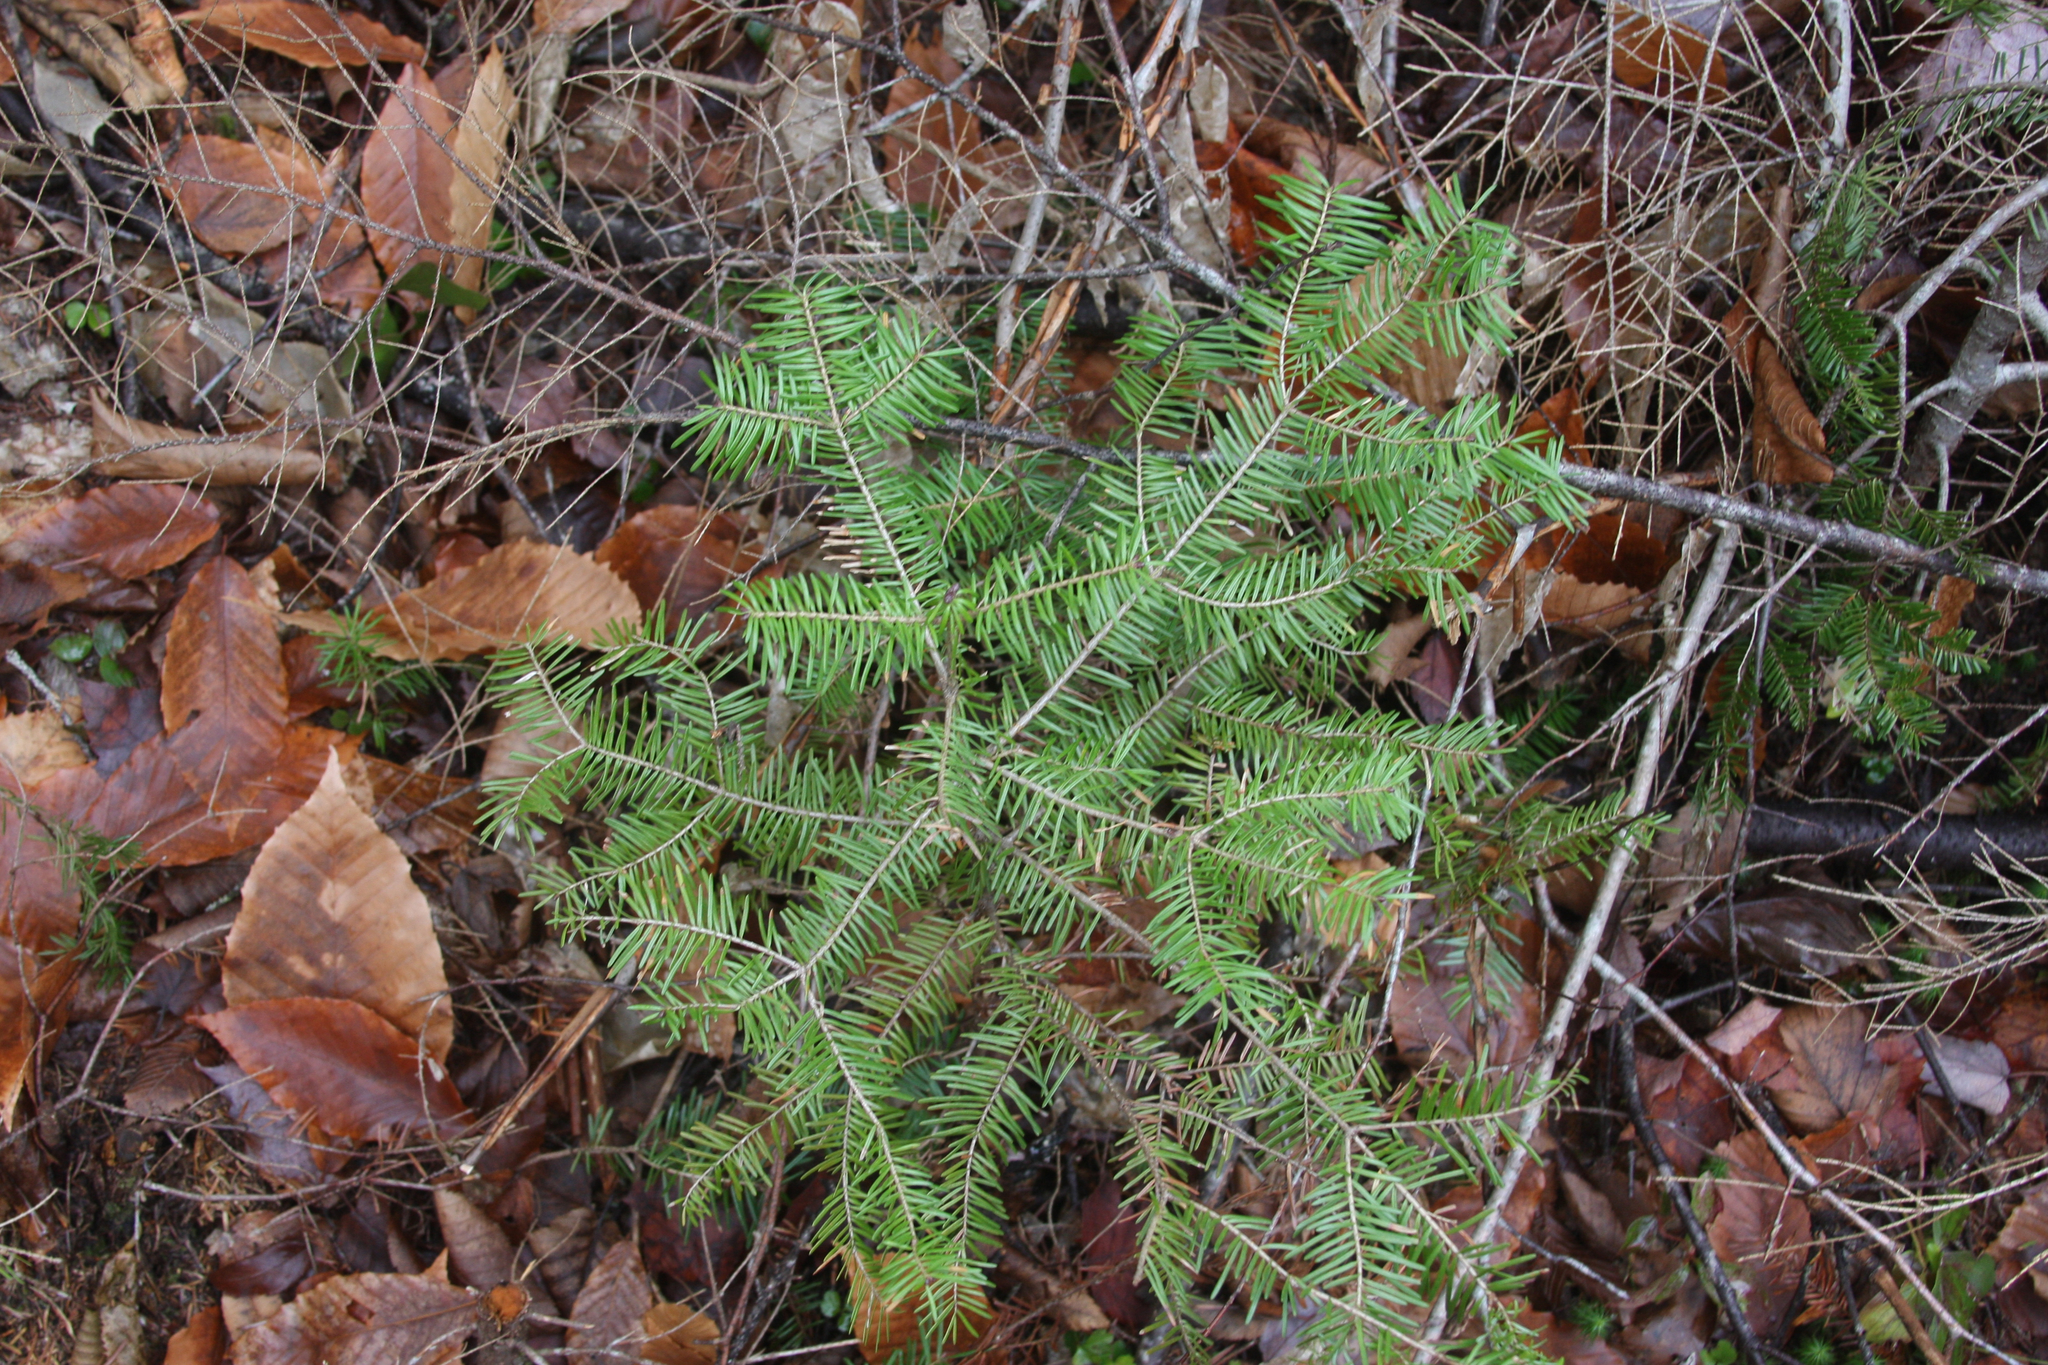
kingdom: Plantae
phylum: Tracheophyta
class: Pinopsida
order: Pinales
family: Pinaceae
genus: Abies
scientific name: Abies balsamea
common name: Balsam fir
